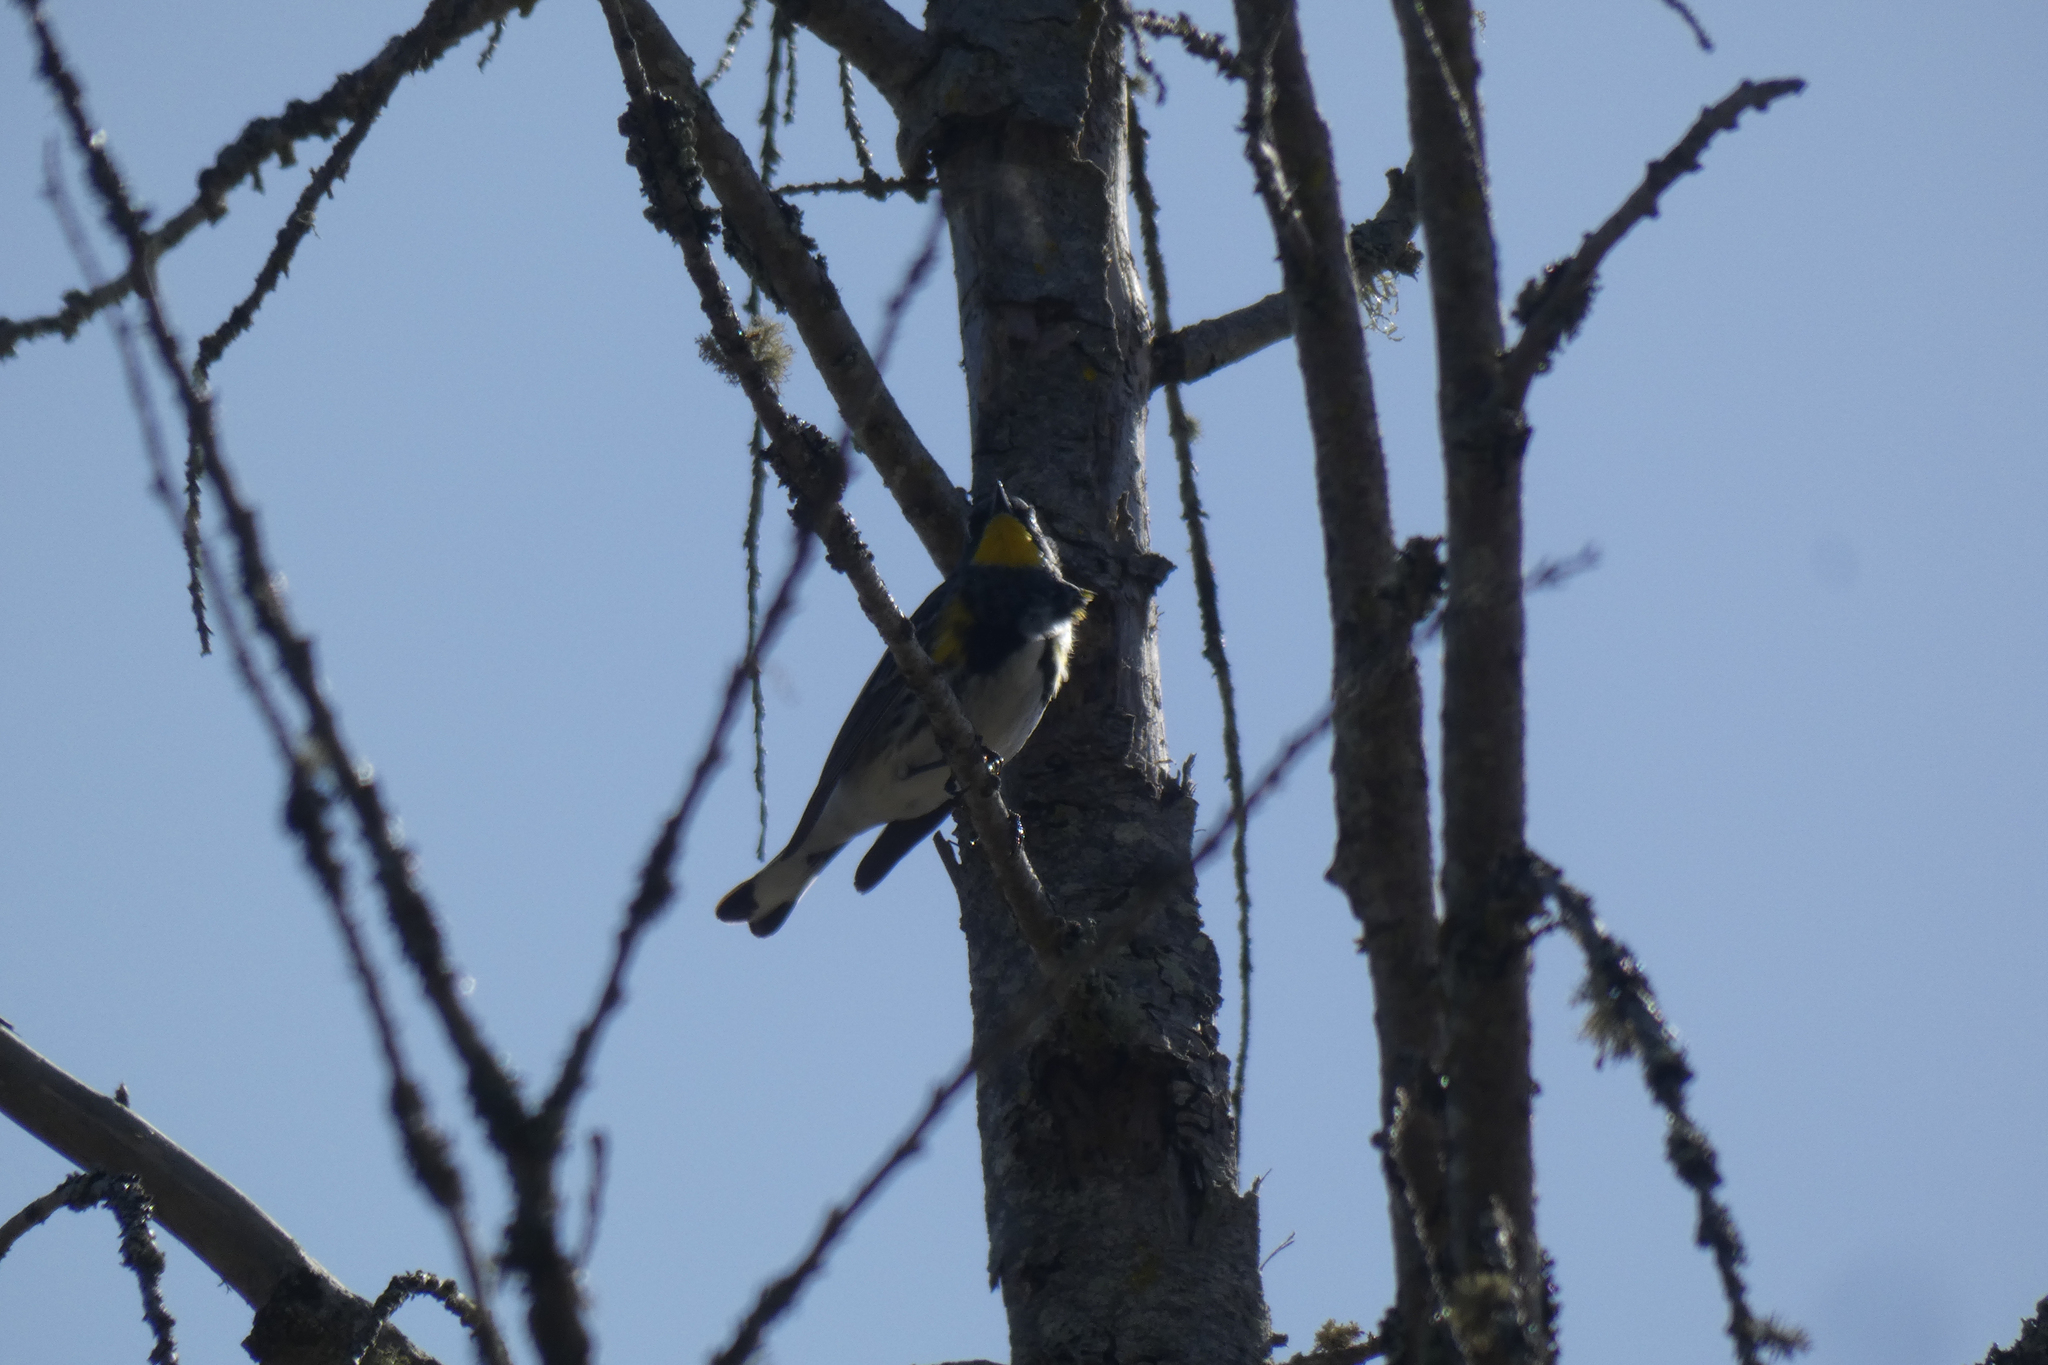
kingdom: Animalia
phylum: Chordata
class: Aves
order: Passeriformes
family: Parulidae
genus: Setophaga
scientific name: Setophaga coronata
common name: Myrtle warbler
